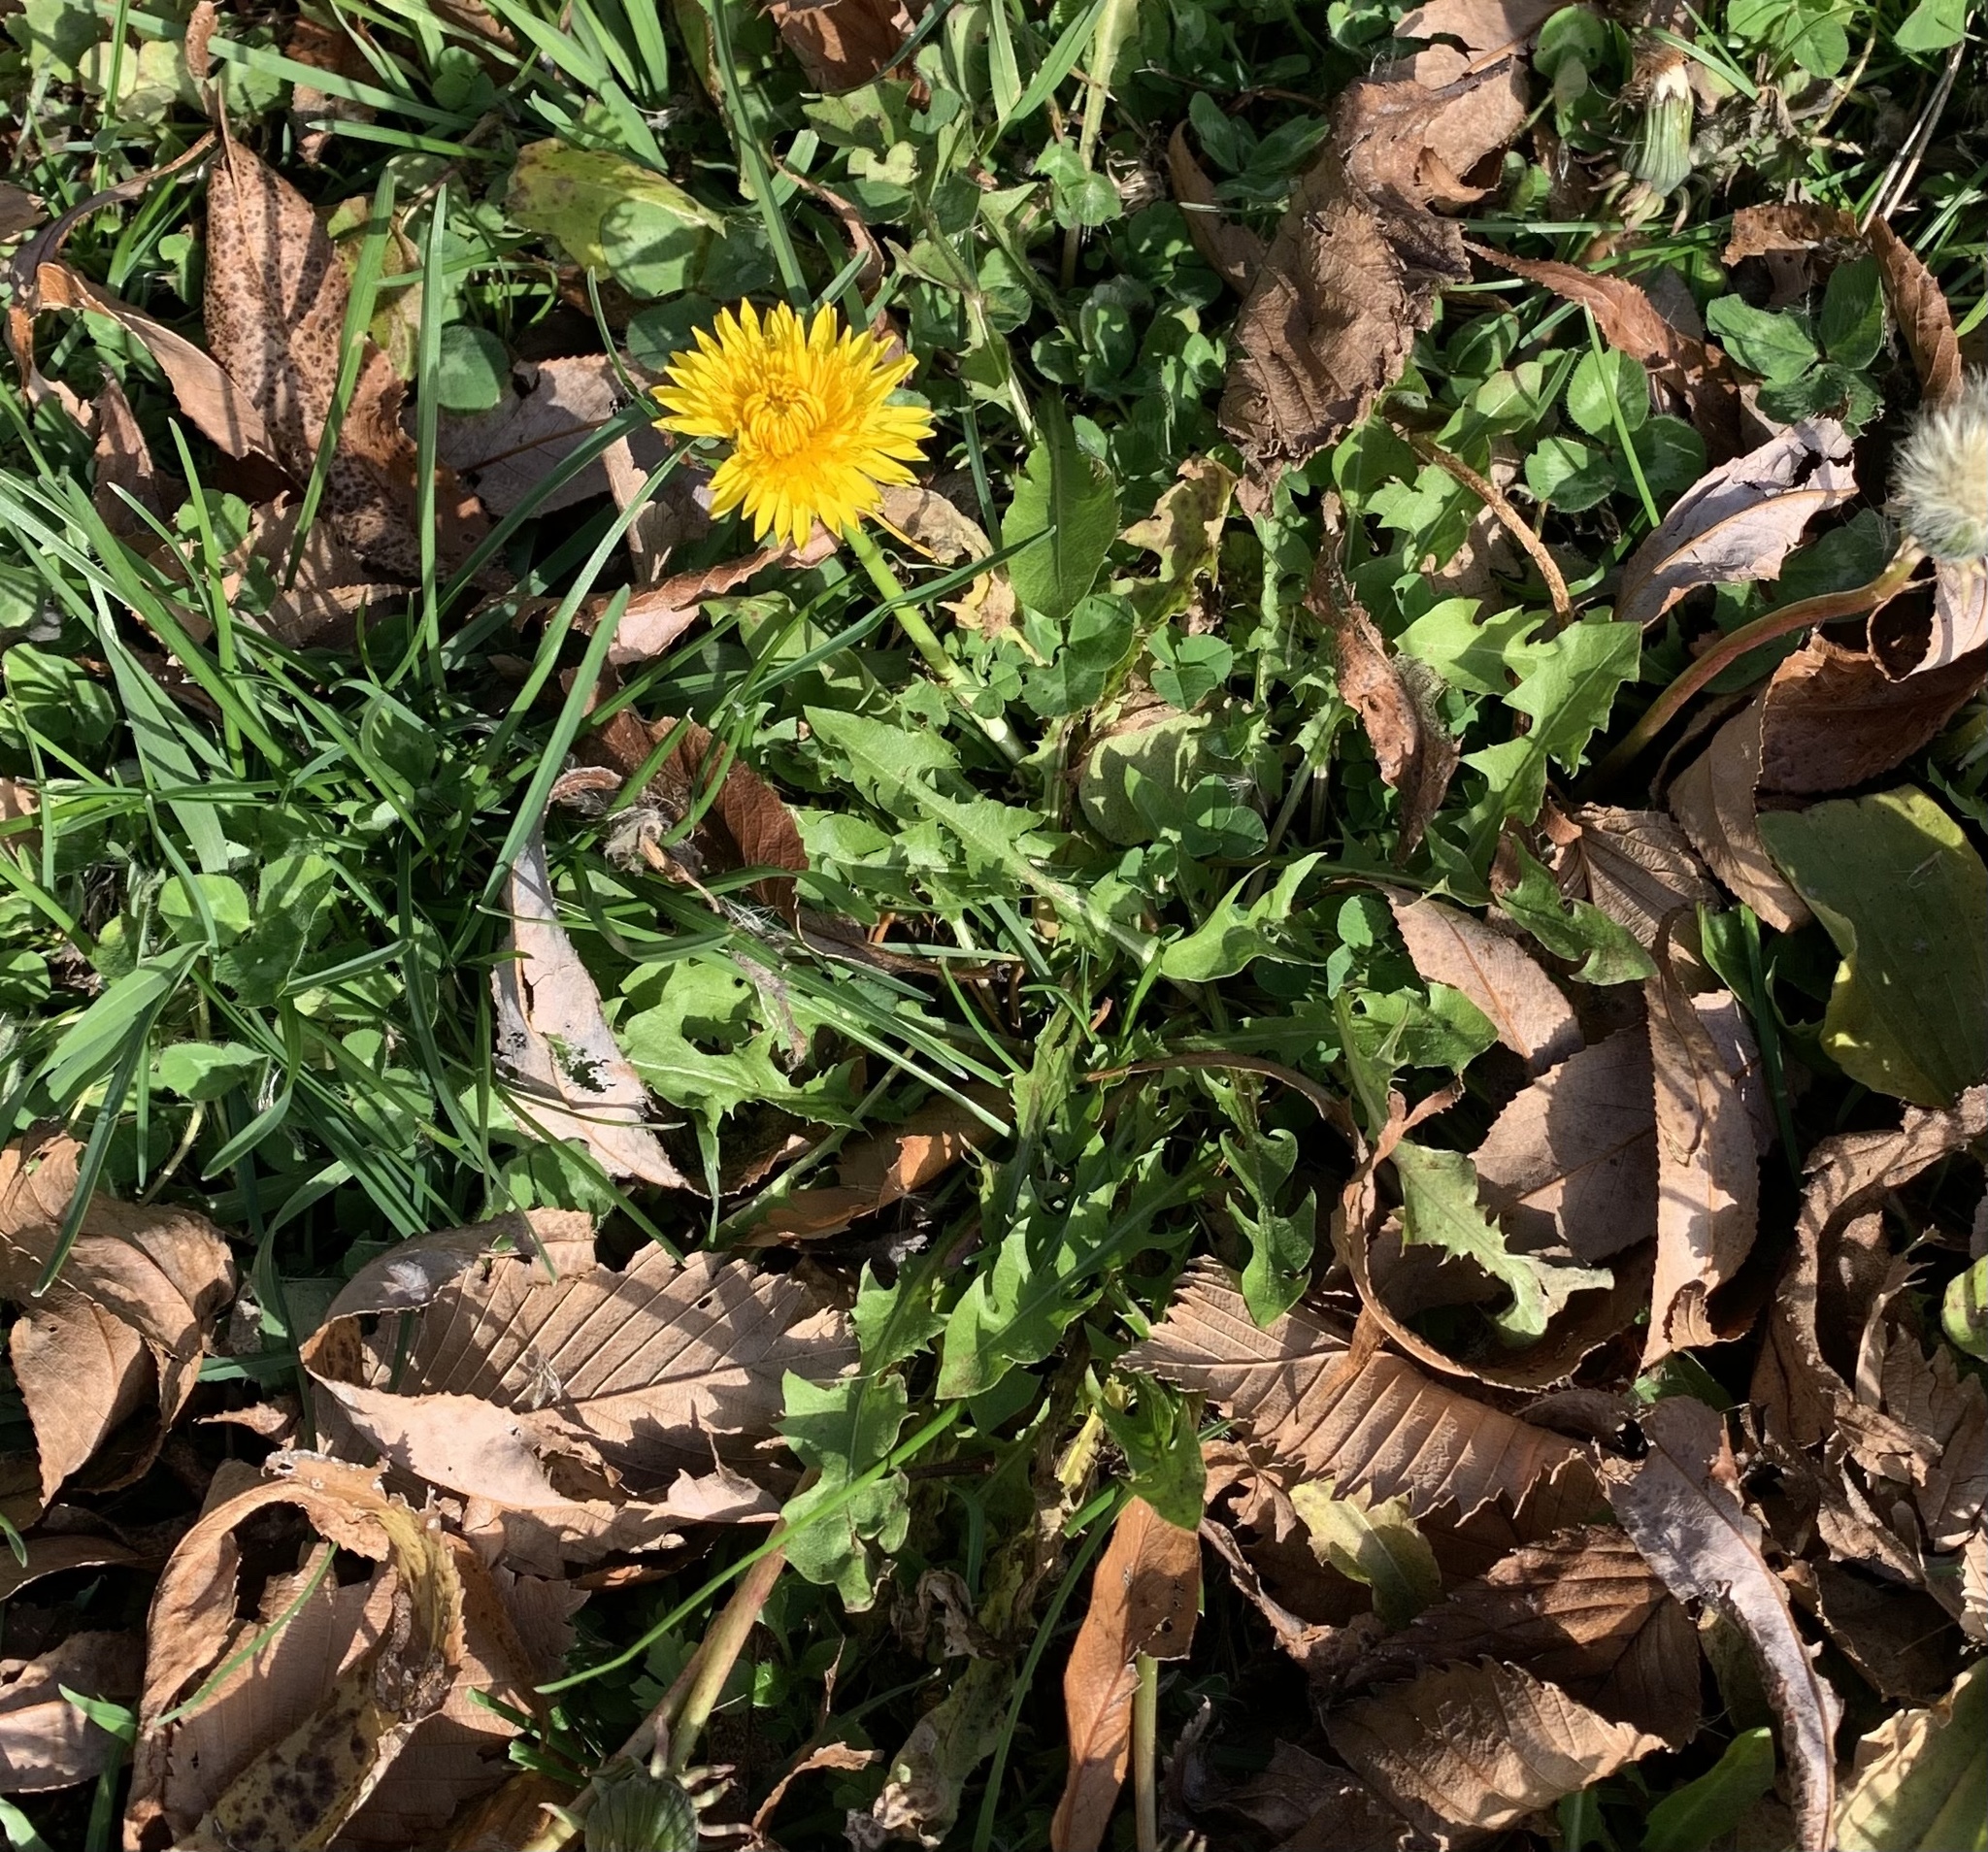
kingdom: Plantae
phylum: Tracheophyta
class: Magnoliopsida
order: Asterales
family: Asteraceae
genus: Taraxacum
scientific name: Taraxacum officinale
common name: Common dandelion
